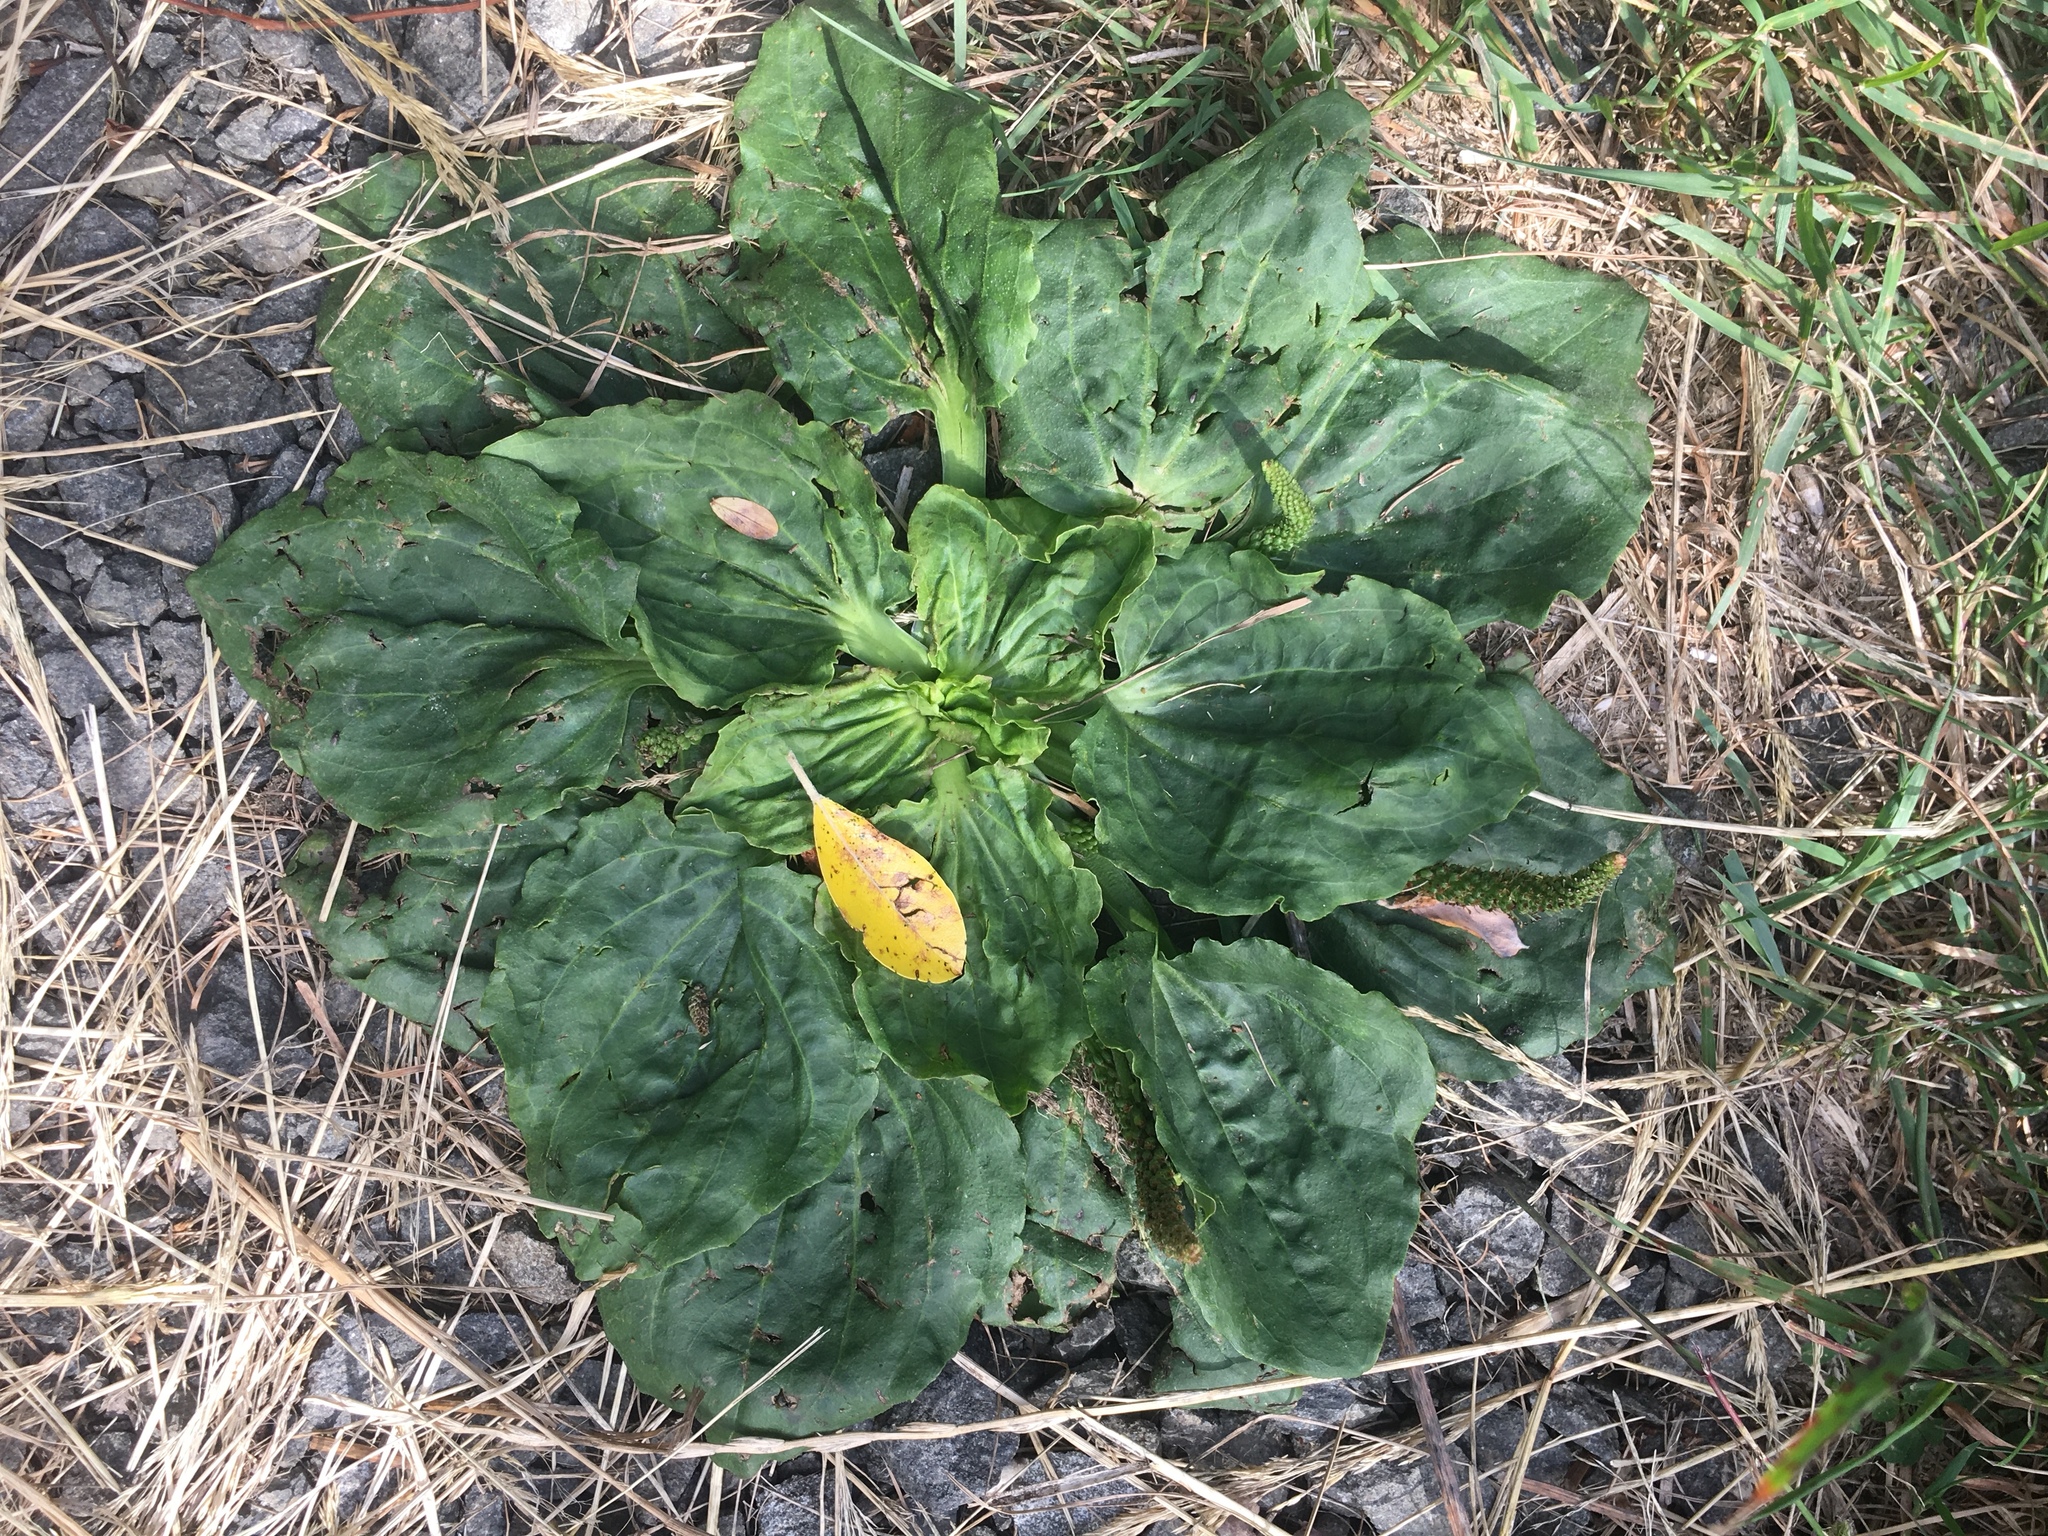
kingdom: Plantae
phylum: Tracheophyta
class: Magnoliopsida
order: Lamiales
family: Plantaginaceae
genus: Plantago
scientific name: Plantago major
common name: Common plantain
